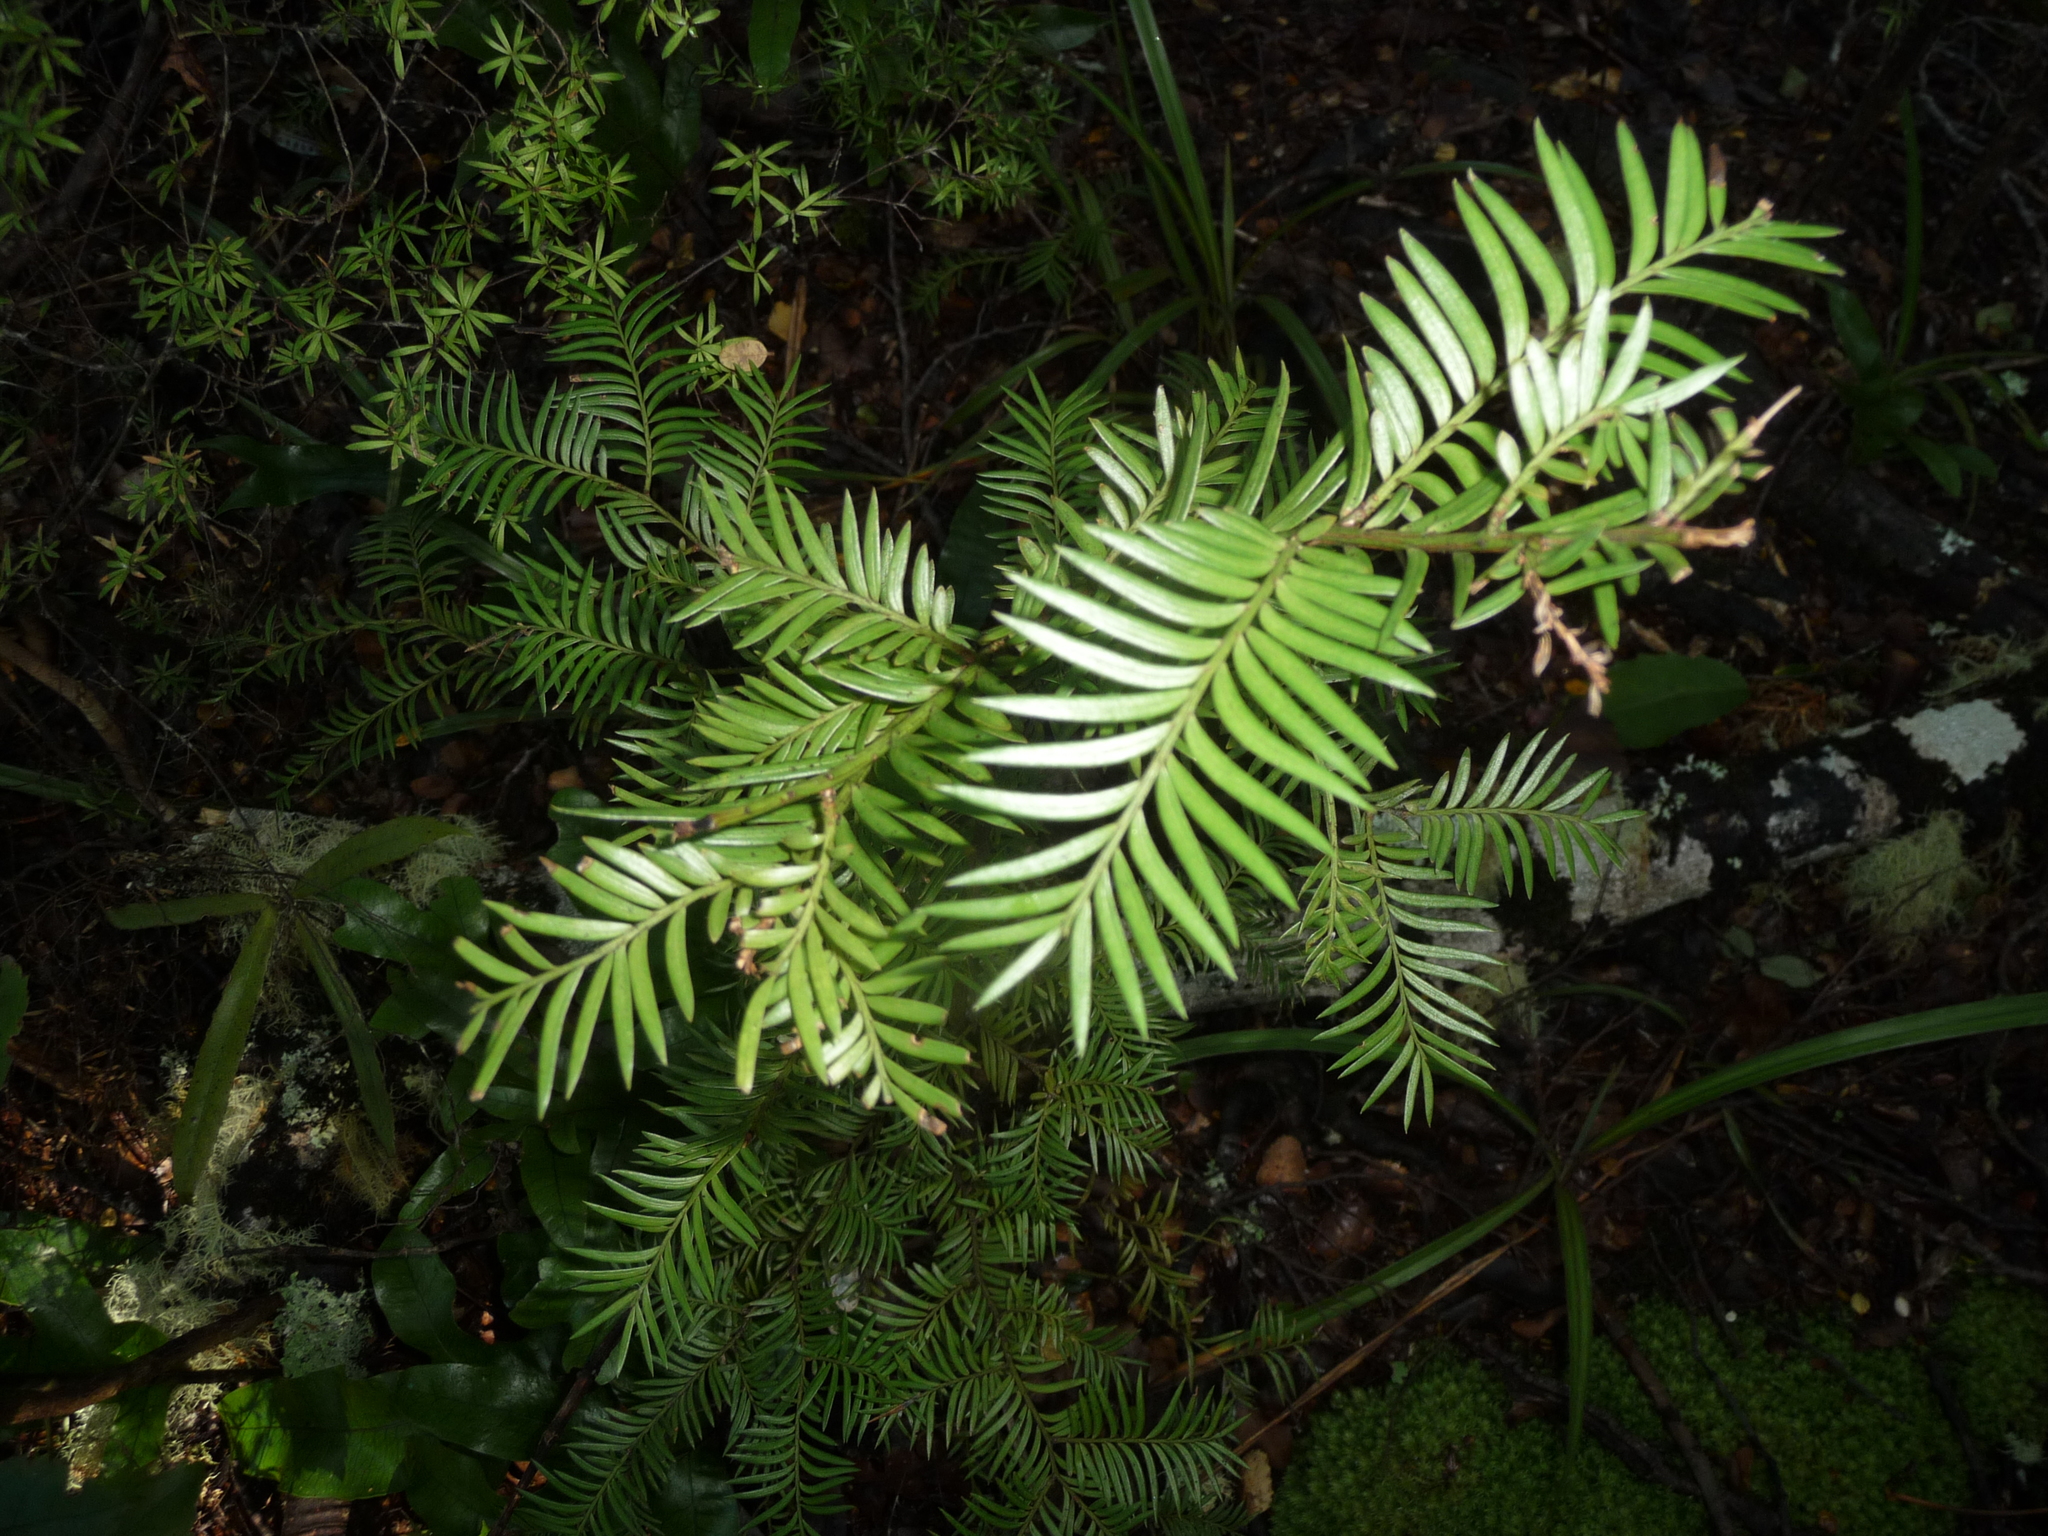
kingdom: Plantae
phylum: Tracheophyta
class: Pinopsida
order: Pinales
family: Podocarpaceae
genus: Prumnopitys
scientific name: Prumnopitys ferruginea
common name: Brown pine
